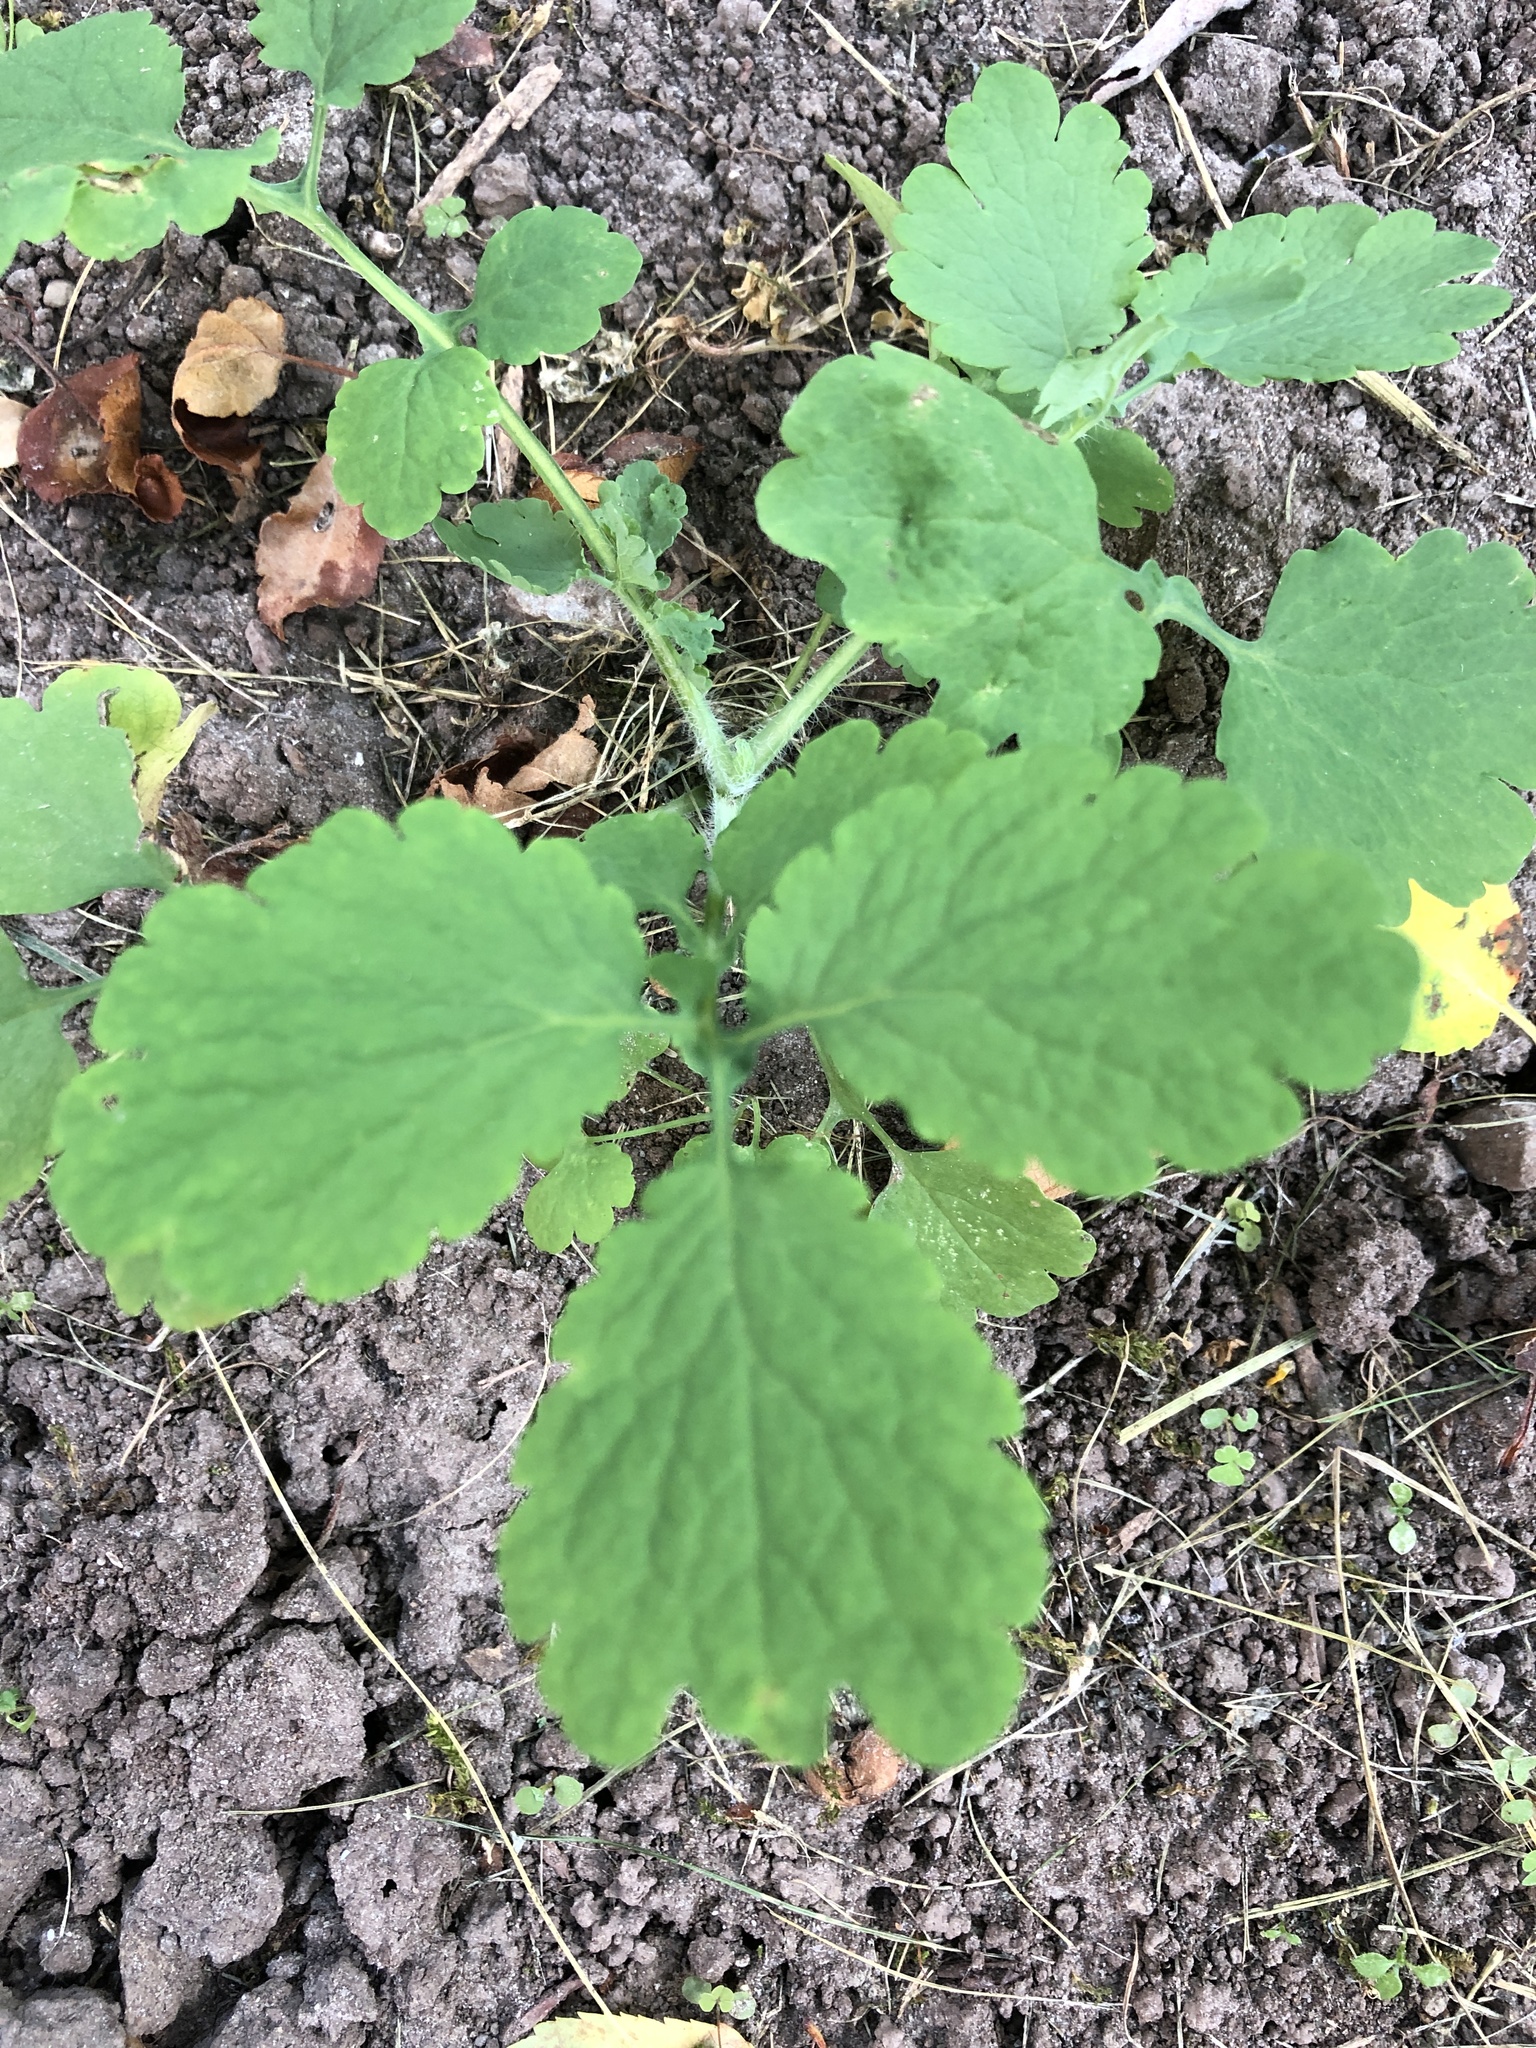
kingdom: Plantae
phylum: Tracheophyta
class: Magnoliopsida
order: Ranunculales
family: Papaveraceae
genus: Chelidonium
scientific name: Chelidonium majus
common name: Greater celandine
